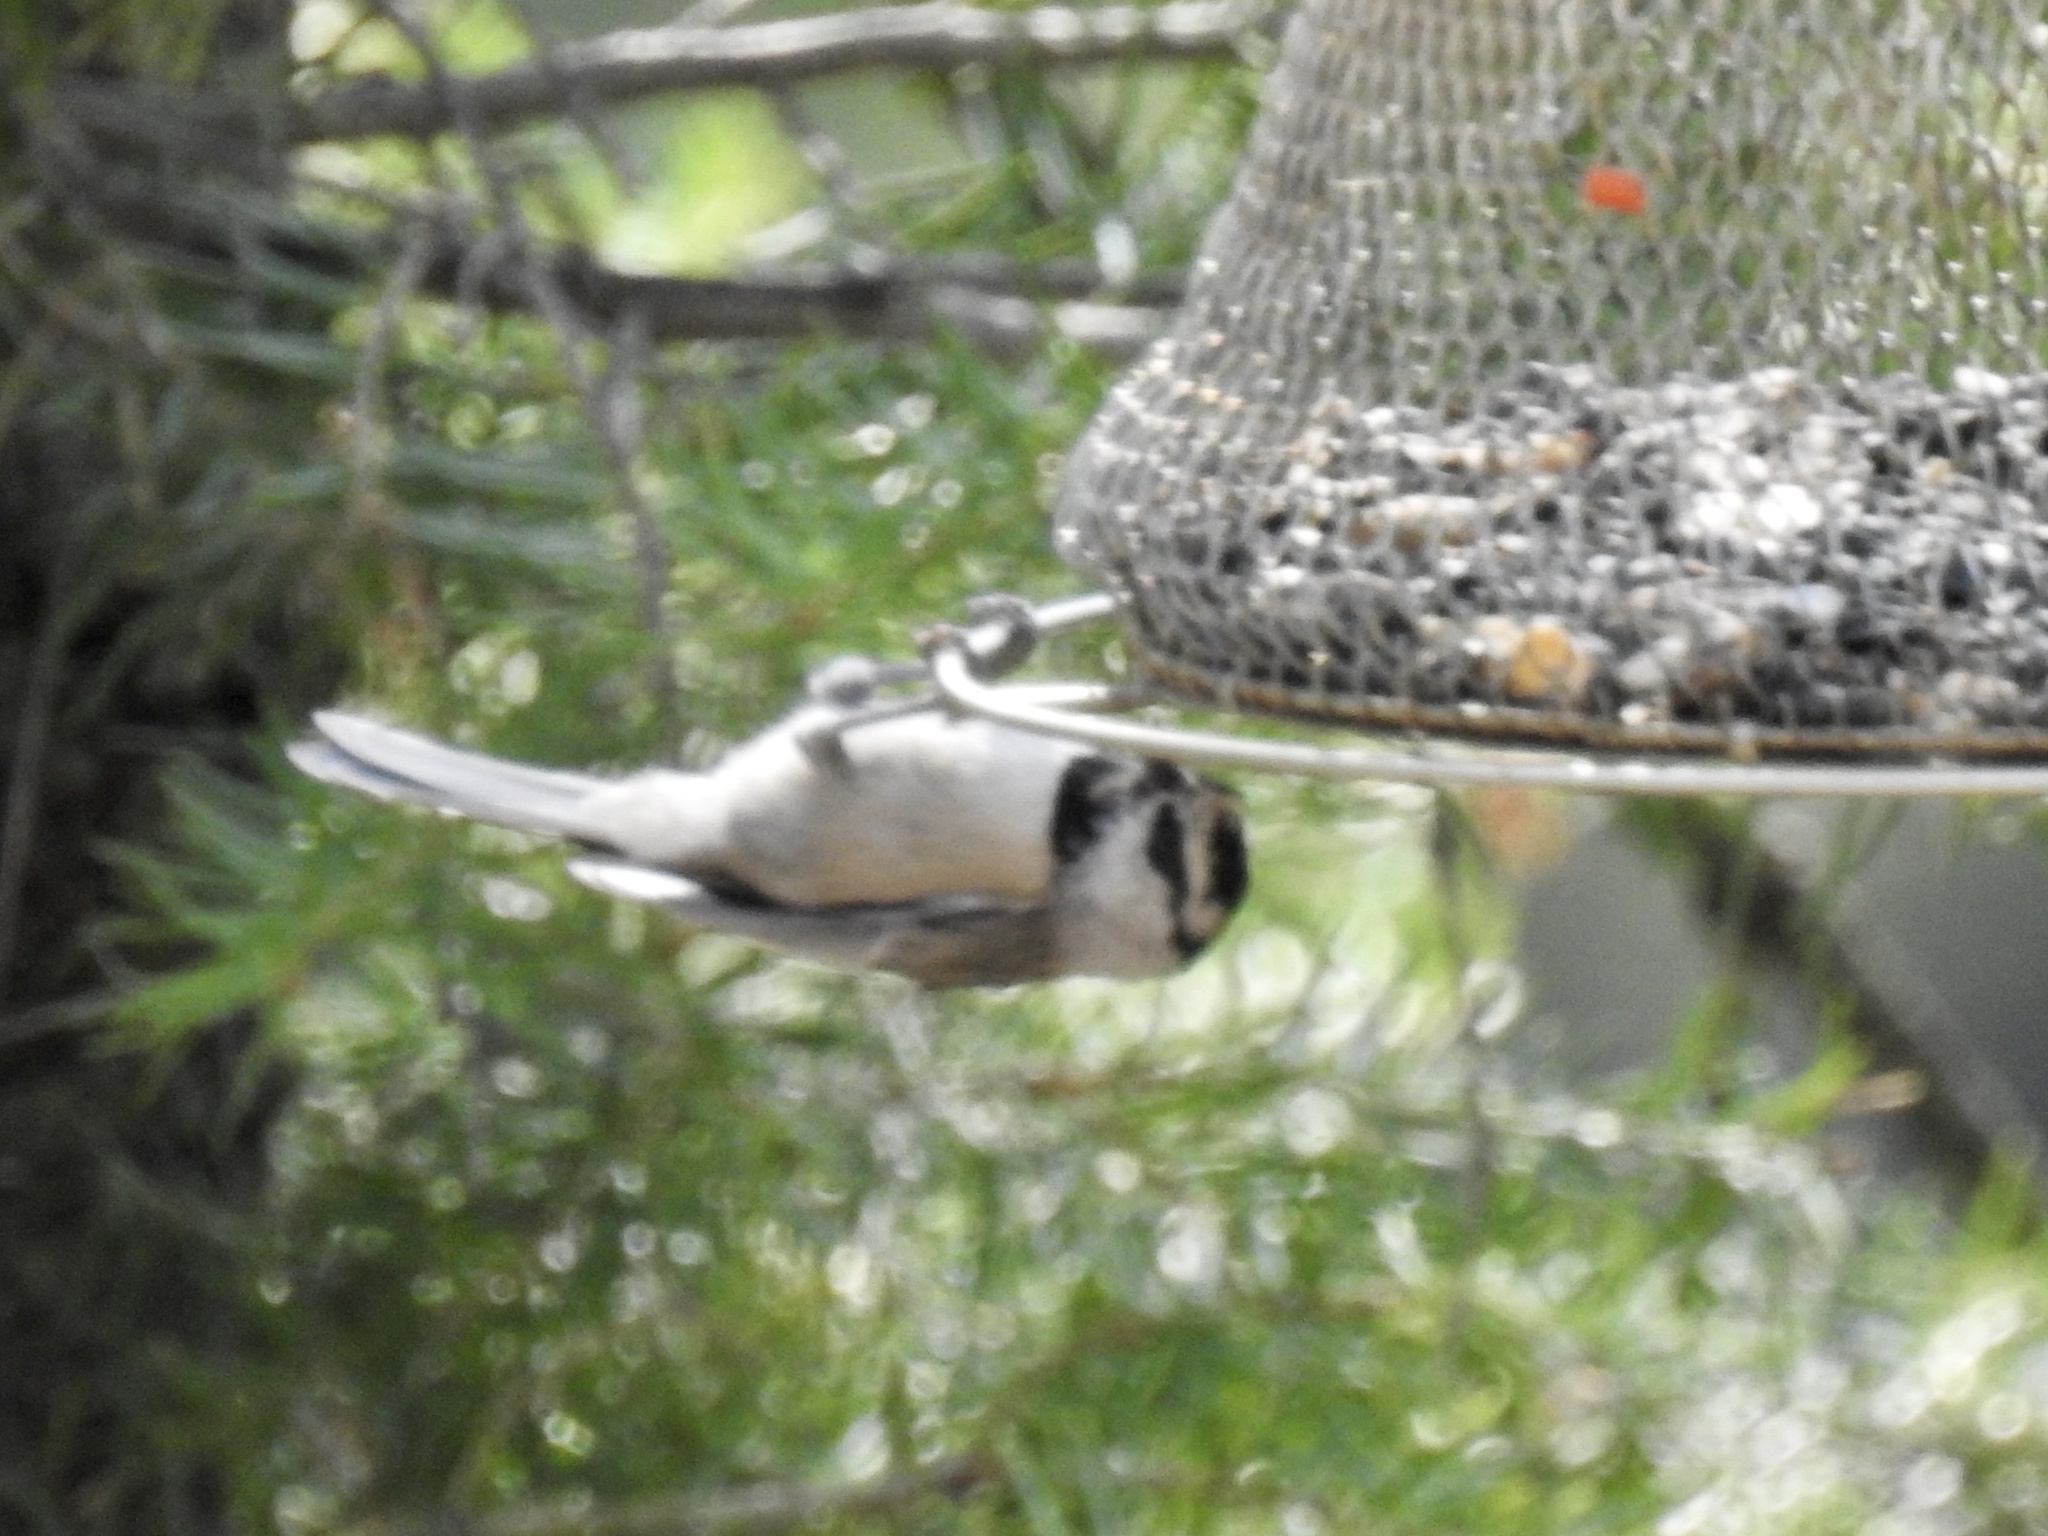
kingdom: Animalia
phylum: Chordata
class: Aves
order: Passeriformes
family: Paridae
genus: Poecile
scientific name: Poecile gambeli
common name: Mountain chickadee
